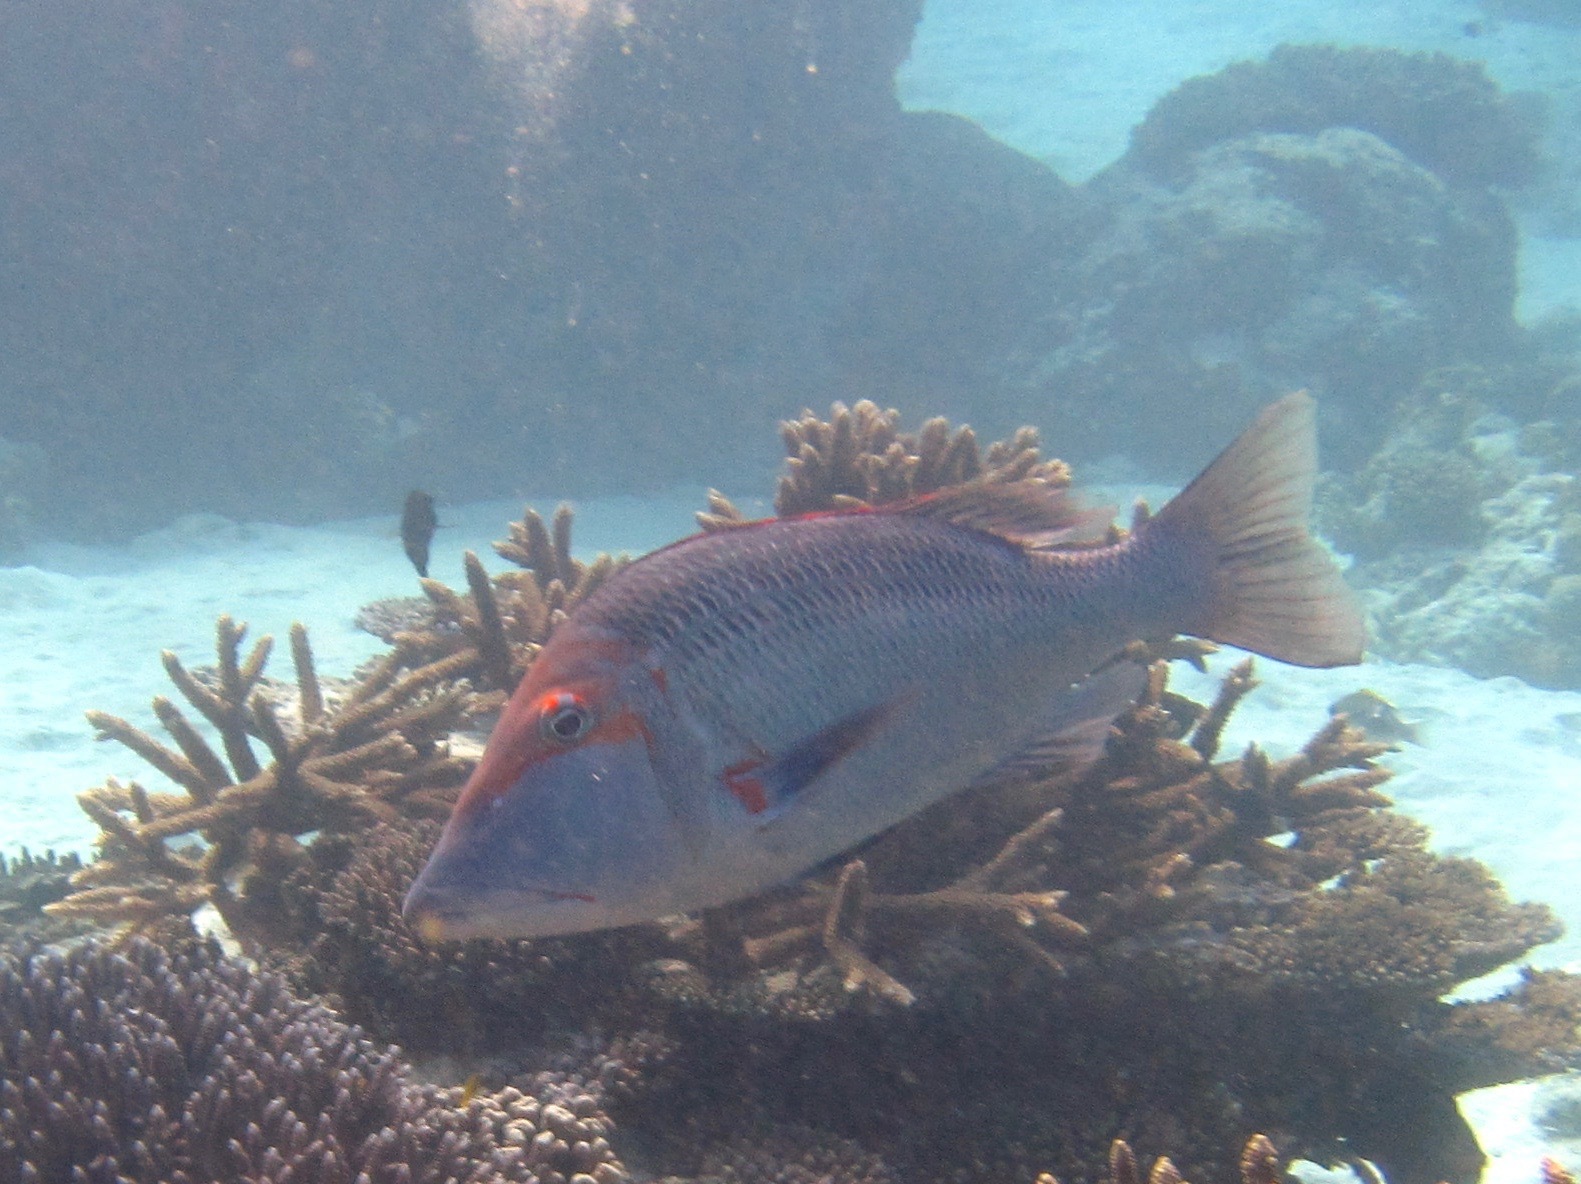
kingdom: Animalia
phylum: Chordata
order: Perciformes
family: Lethrinidae
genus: Lethrinus
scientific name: Lethrinus miniatus
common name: Trumpet emperor
